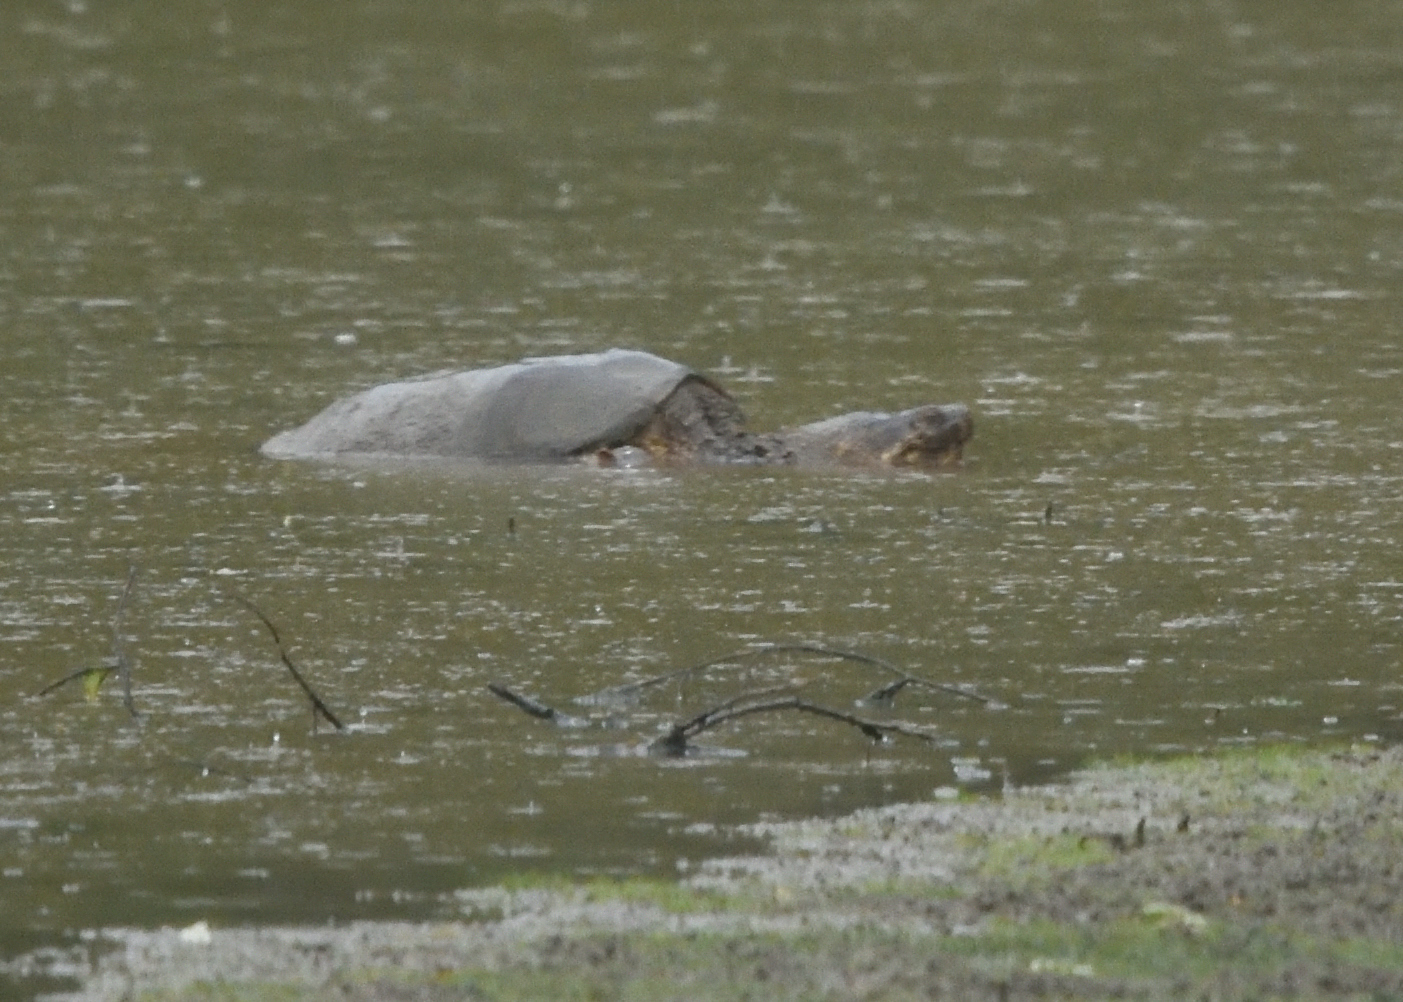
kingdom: Animalia
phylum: Chordata
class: Testudines
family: Chelydridae
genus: Chelydra
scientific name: Chelydra serpentina
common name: Common snapping turtle
